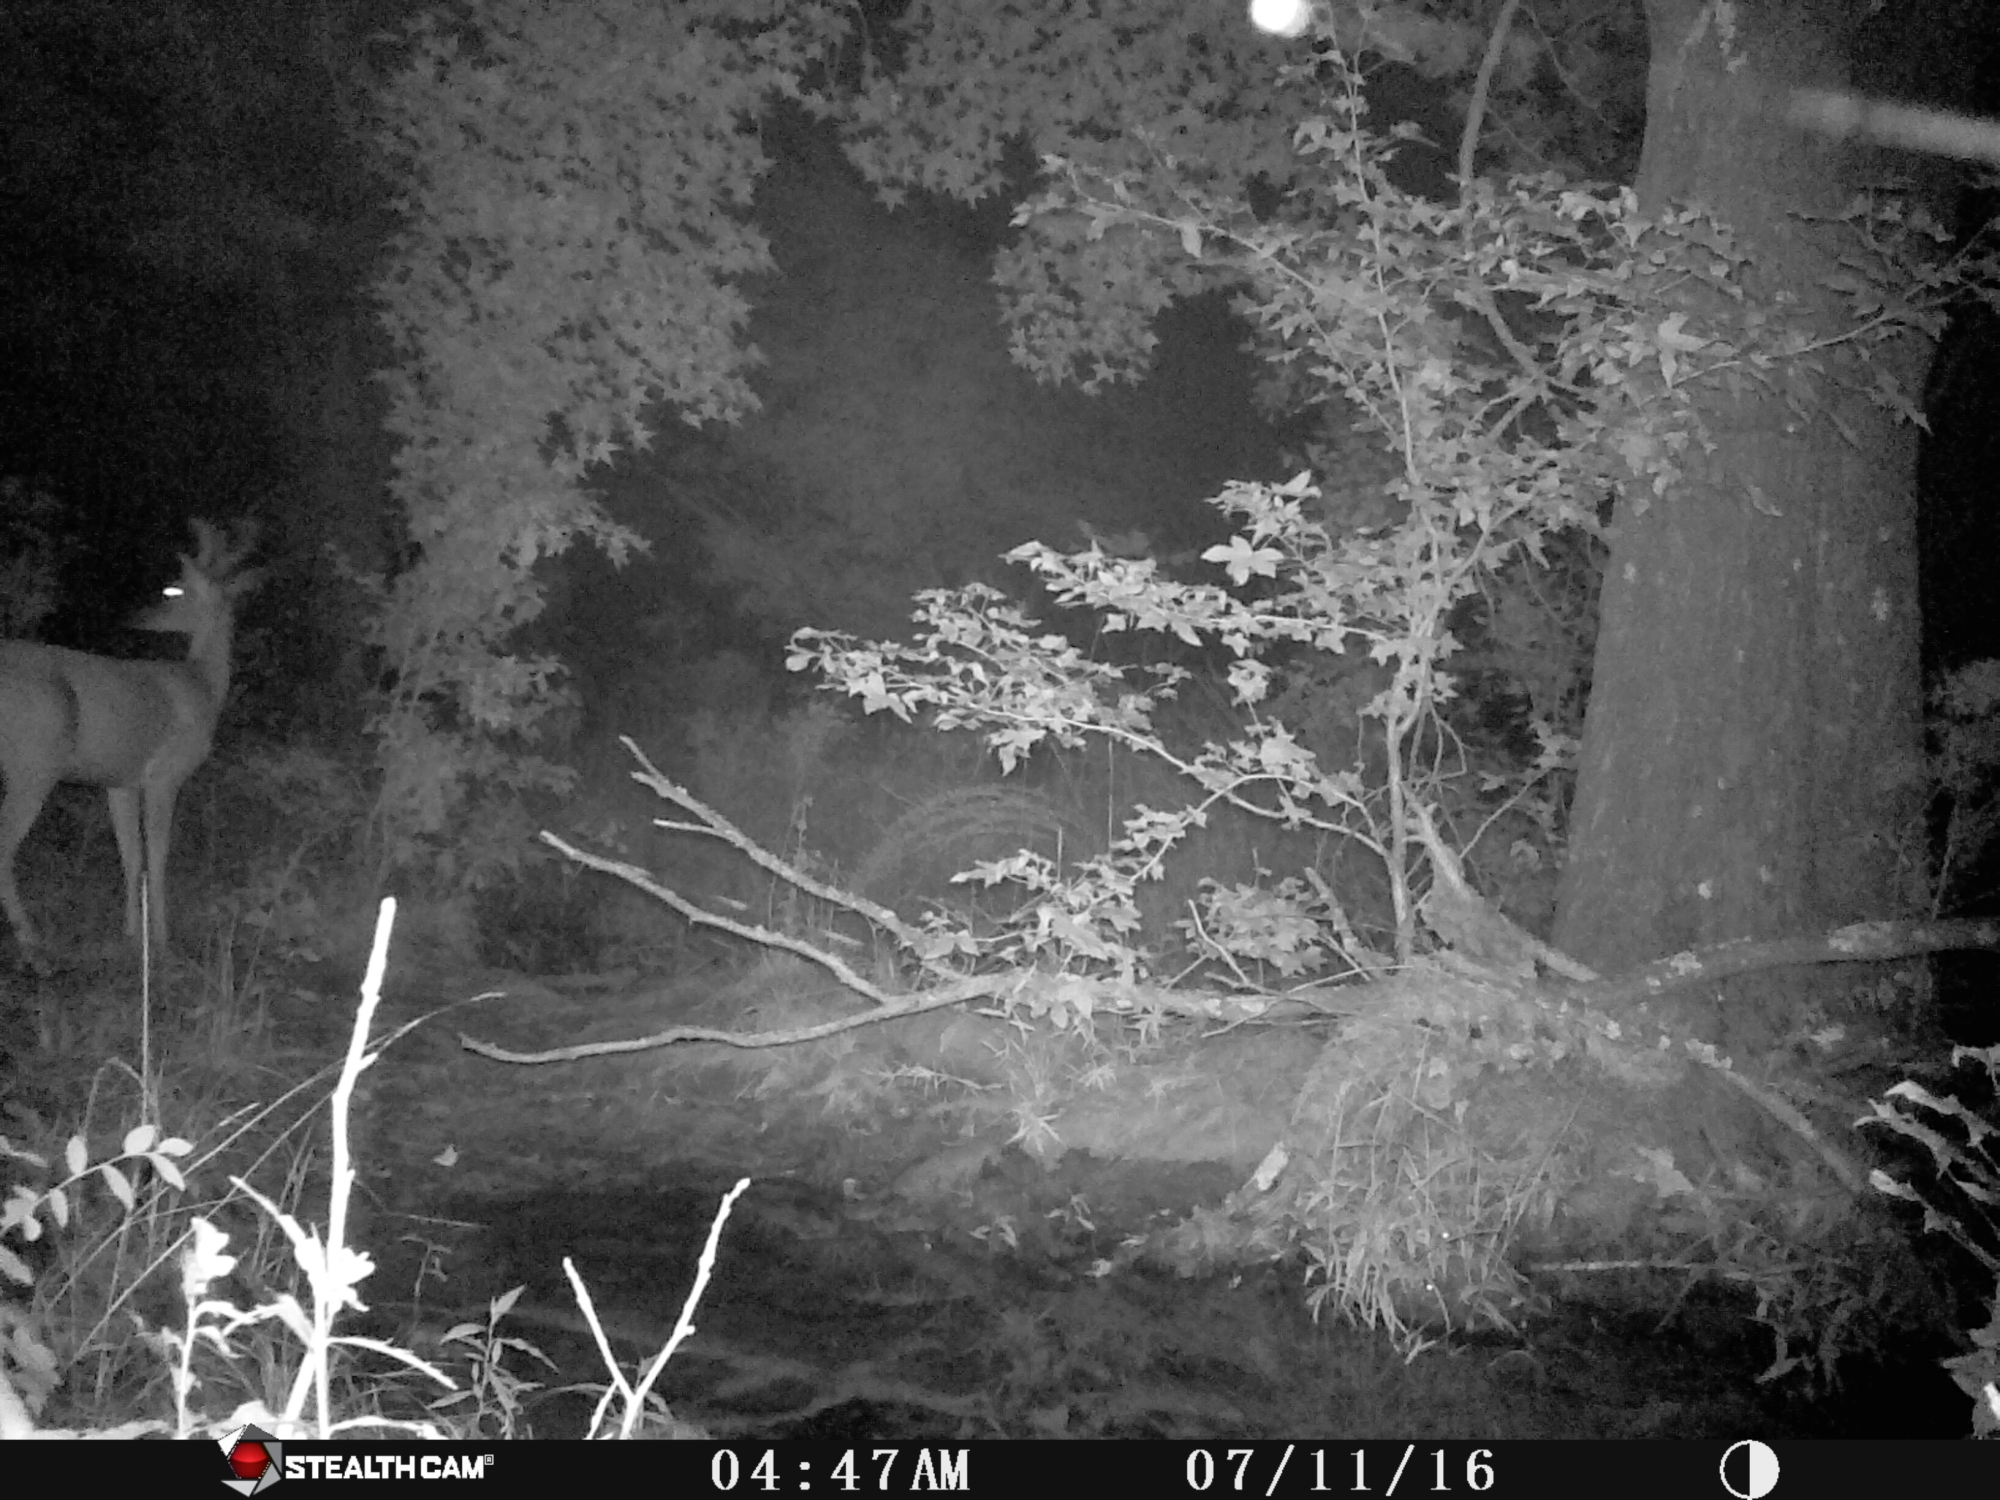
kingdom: Animalia
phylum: Chordata
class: Mammalia
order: Artiodactyla
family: Cervidae
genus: Odocoileus
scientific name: Odocoileus virginianus
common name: White-tailed deer
